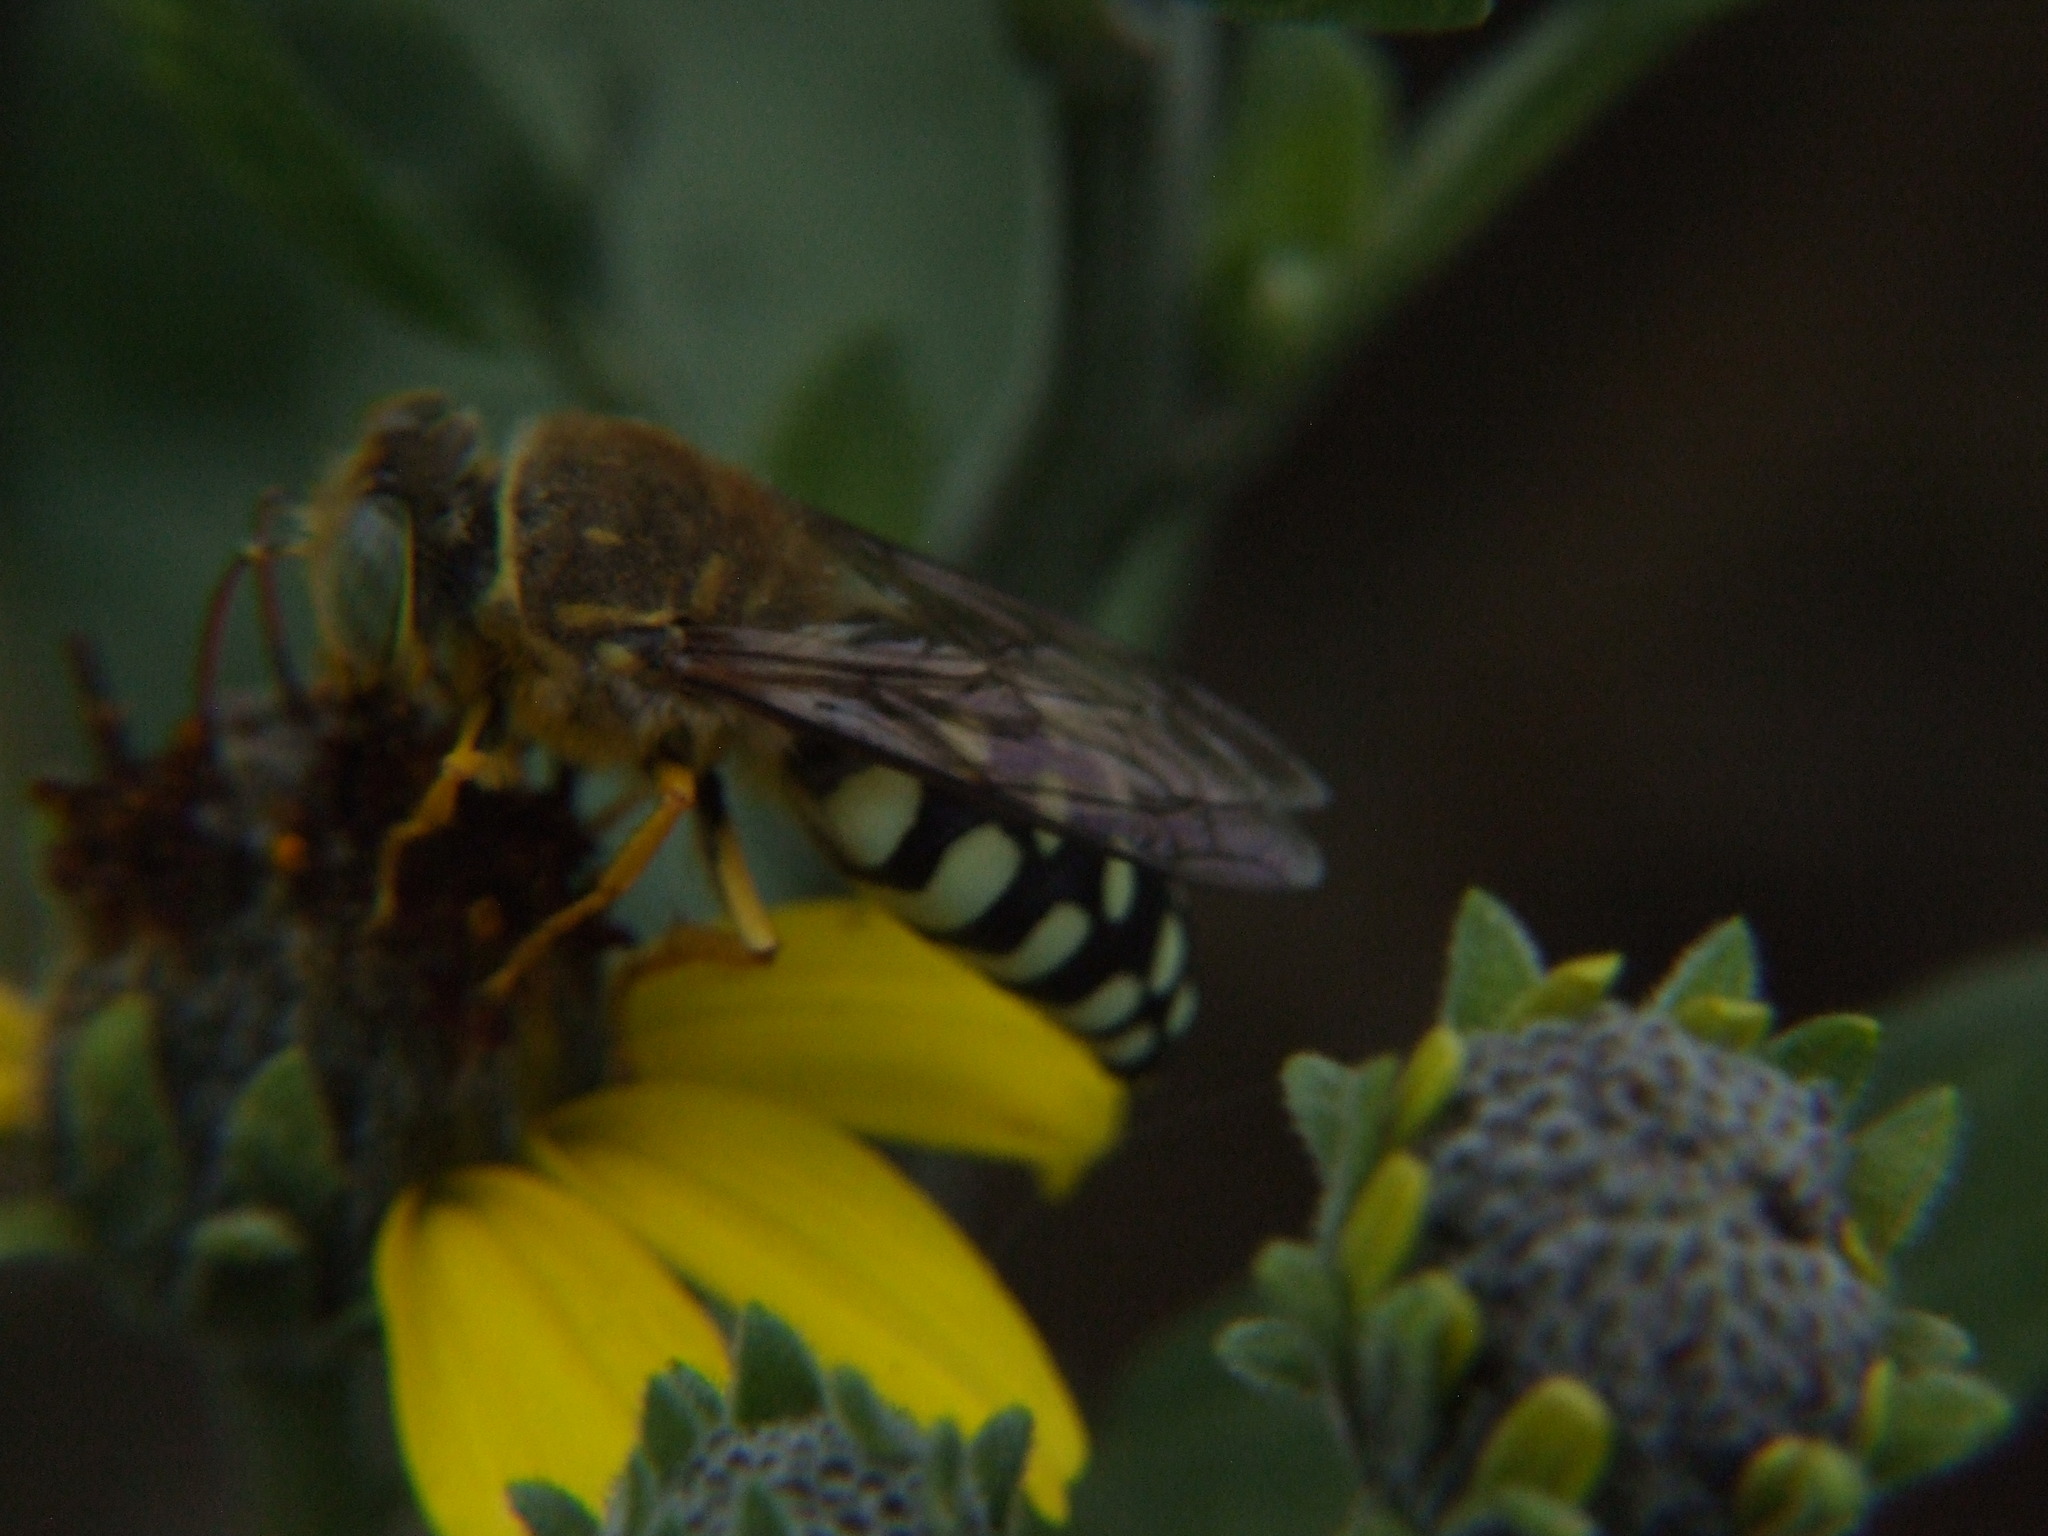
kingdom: Animalia
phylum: Arthropoda
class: Insecta
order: Hymenoptera
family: Crabronidae
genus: Trichostictia
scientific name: Trichostictia brunneri
